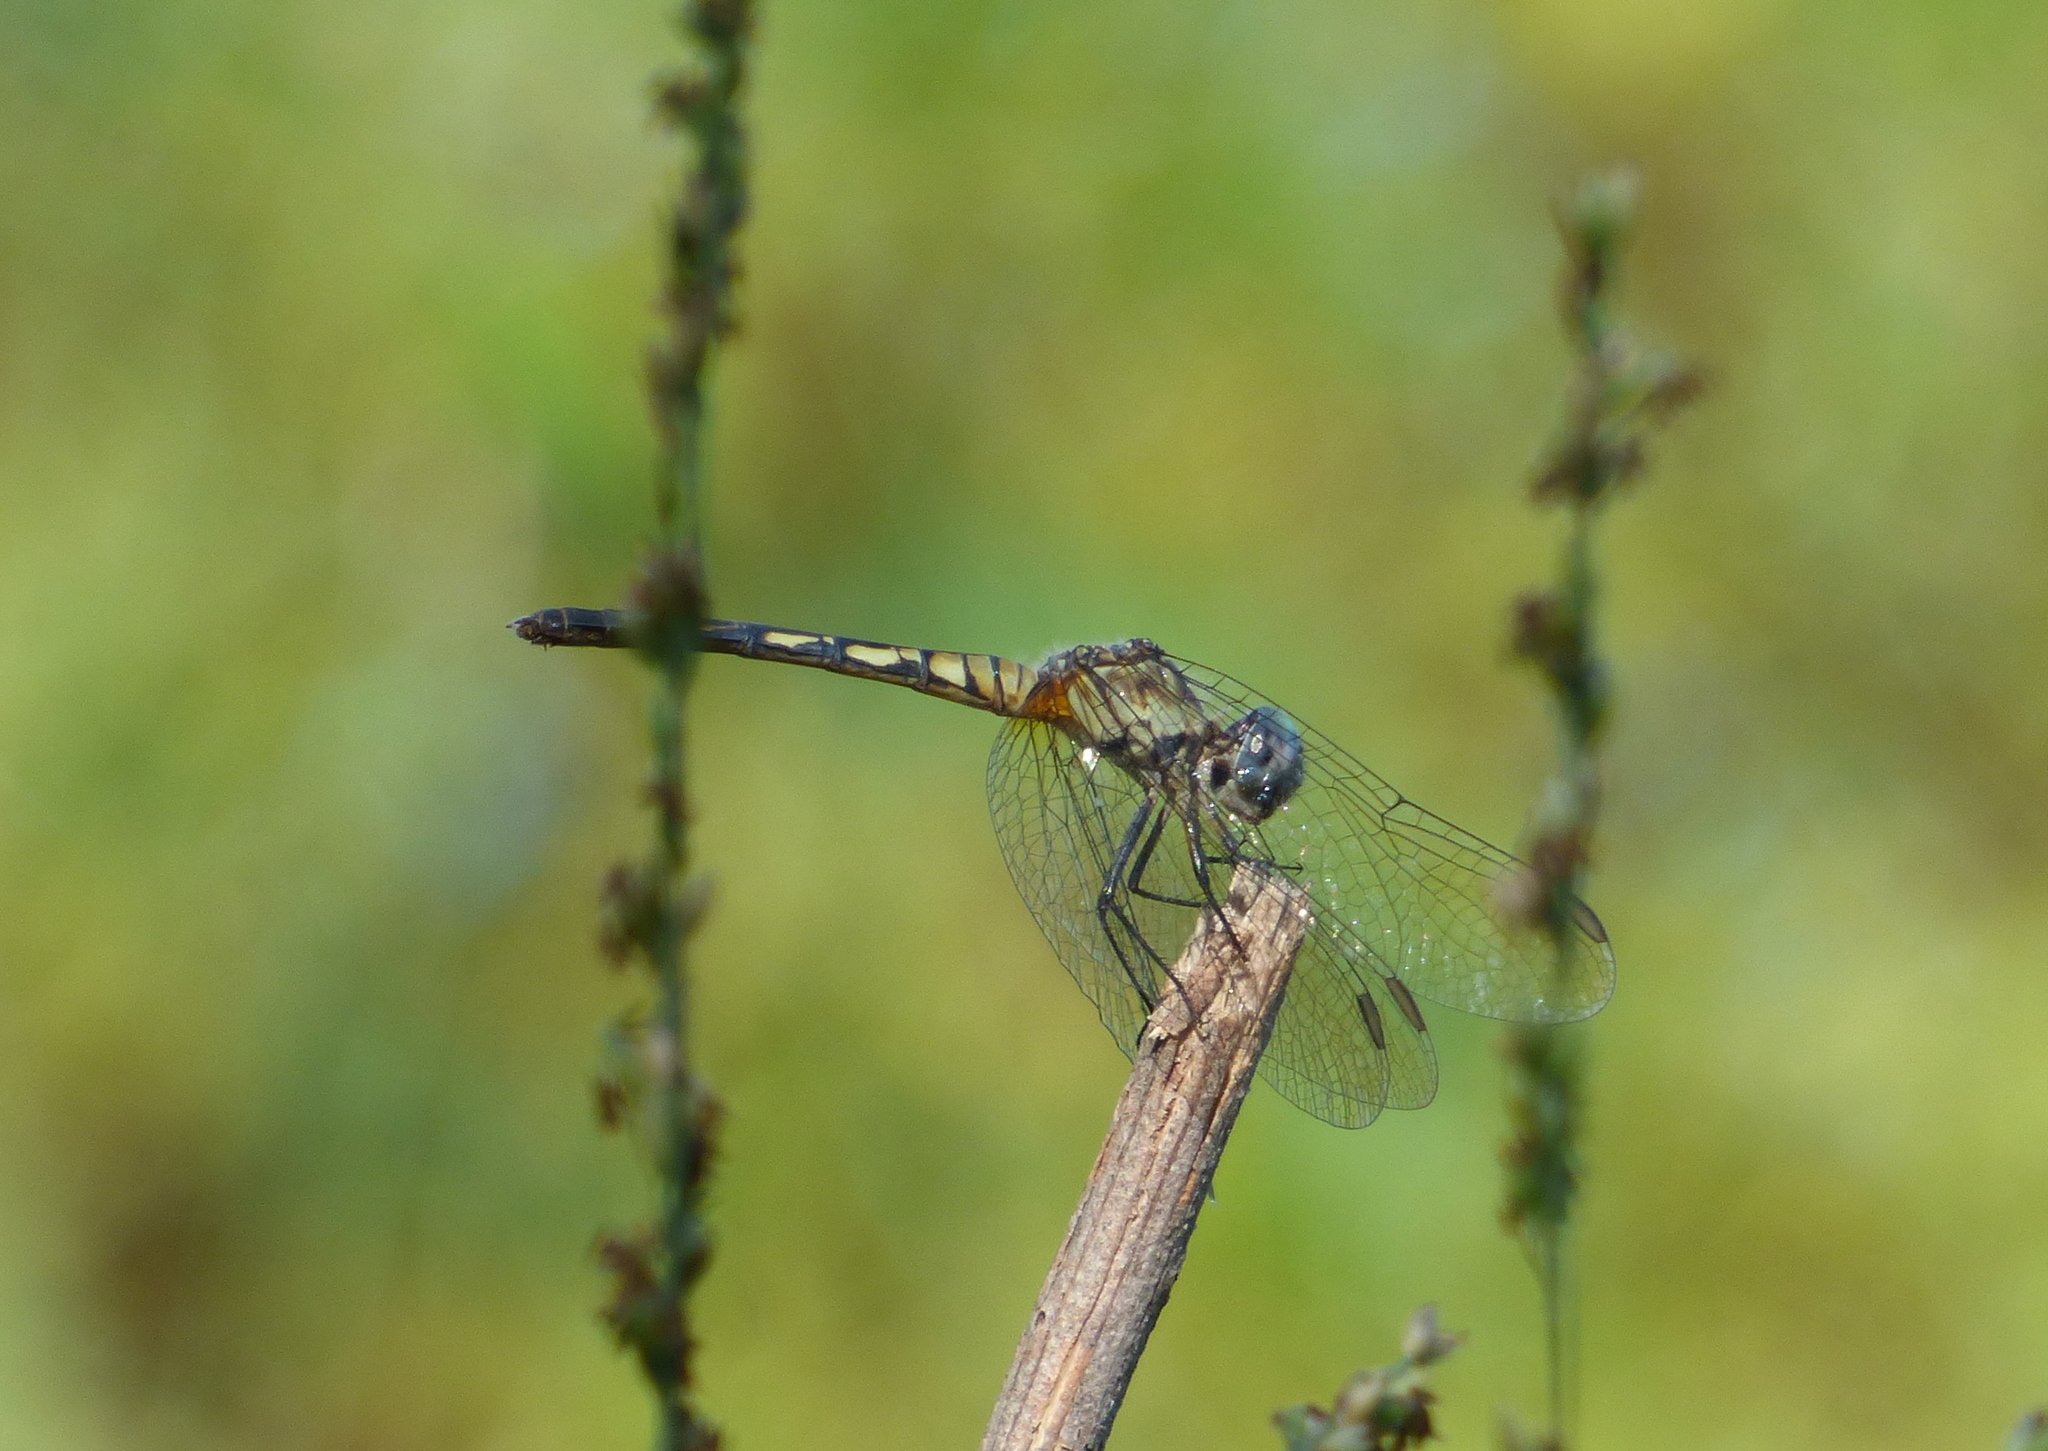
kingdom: Animalia
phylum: Arthropoda
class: Insecta
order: Odonata
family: Libellulidae
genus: Micrathyria
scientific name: Micrathyria longifasciata
